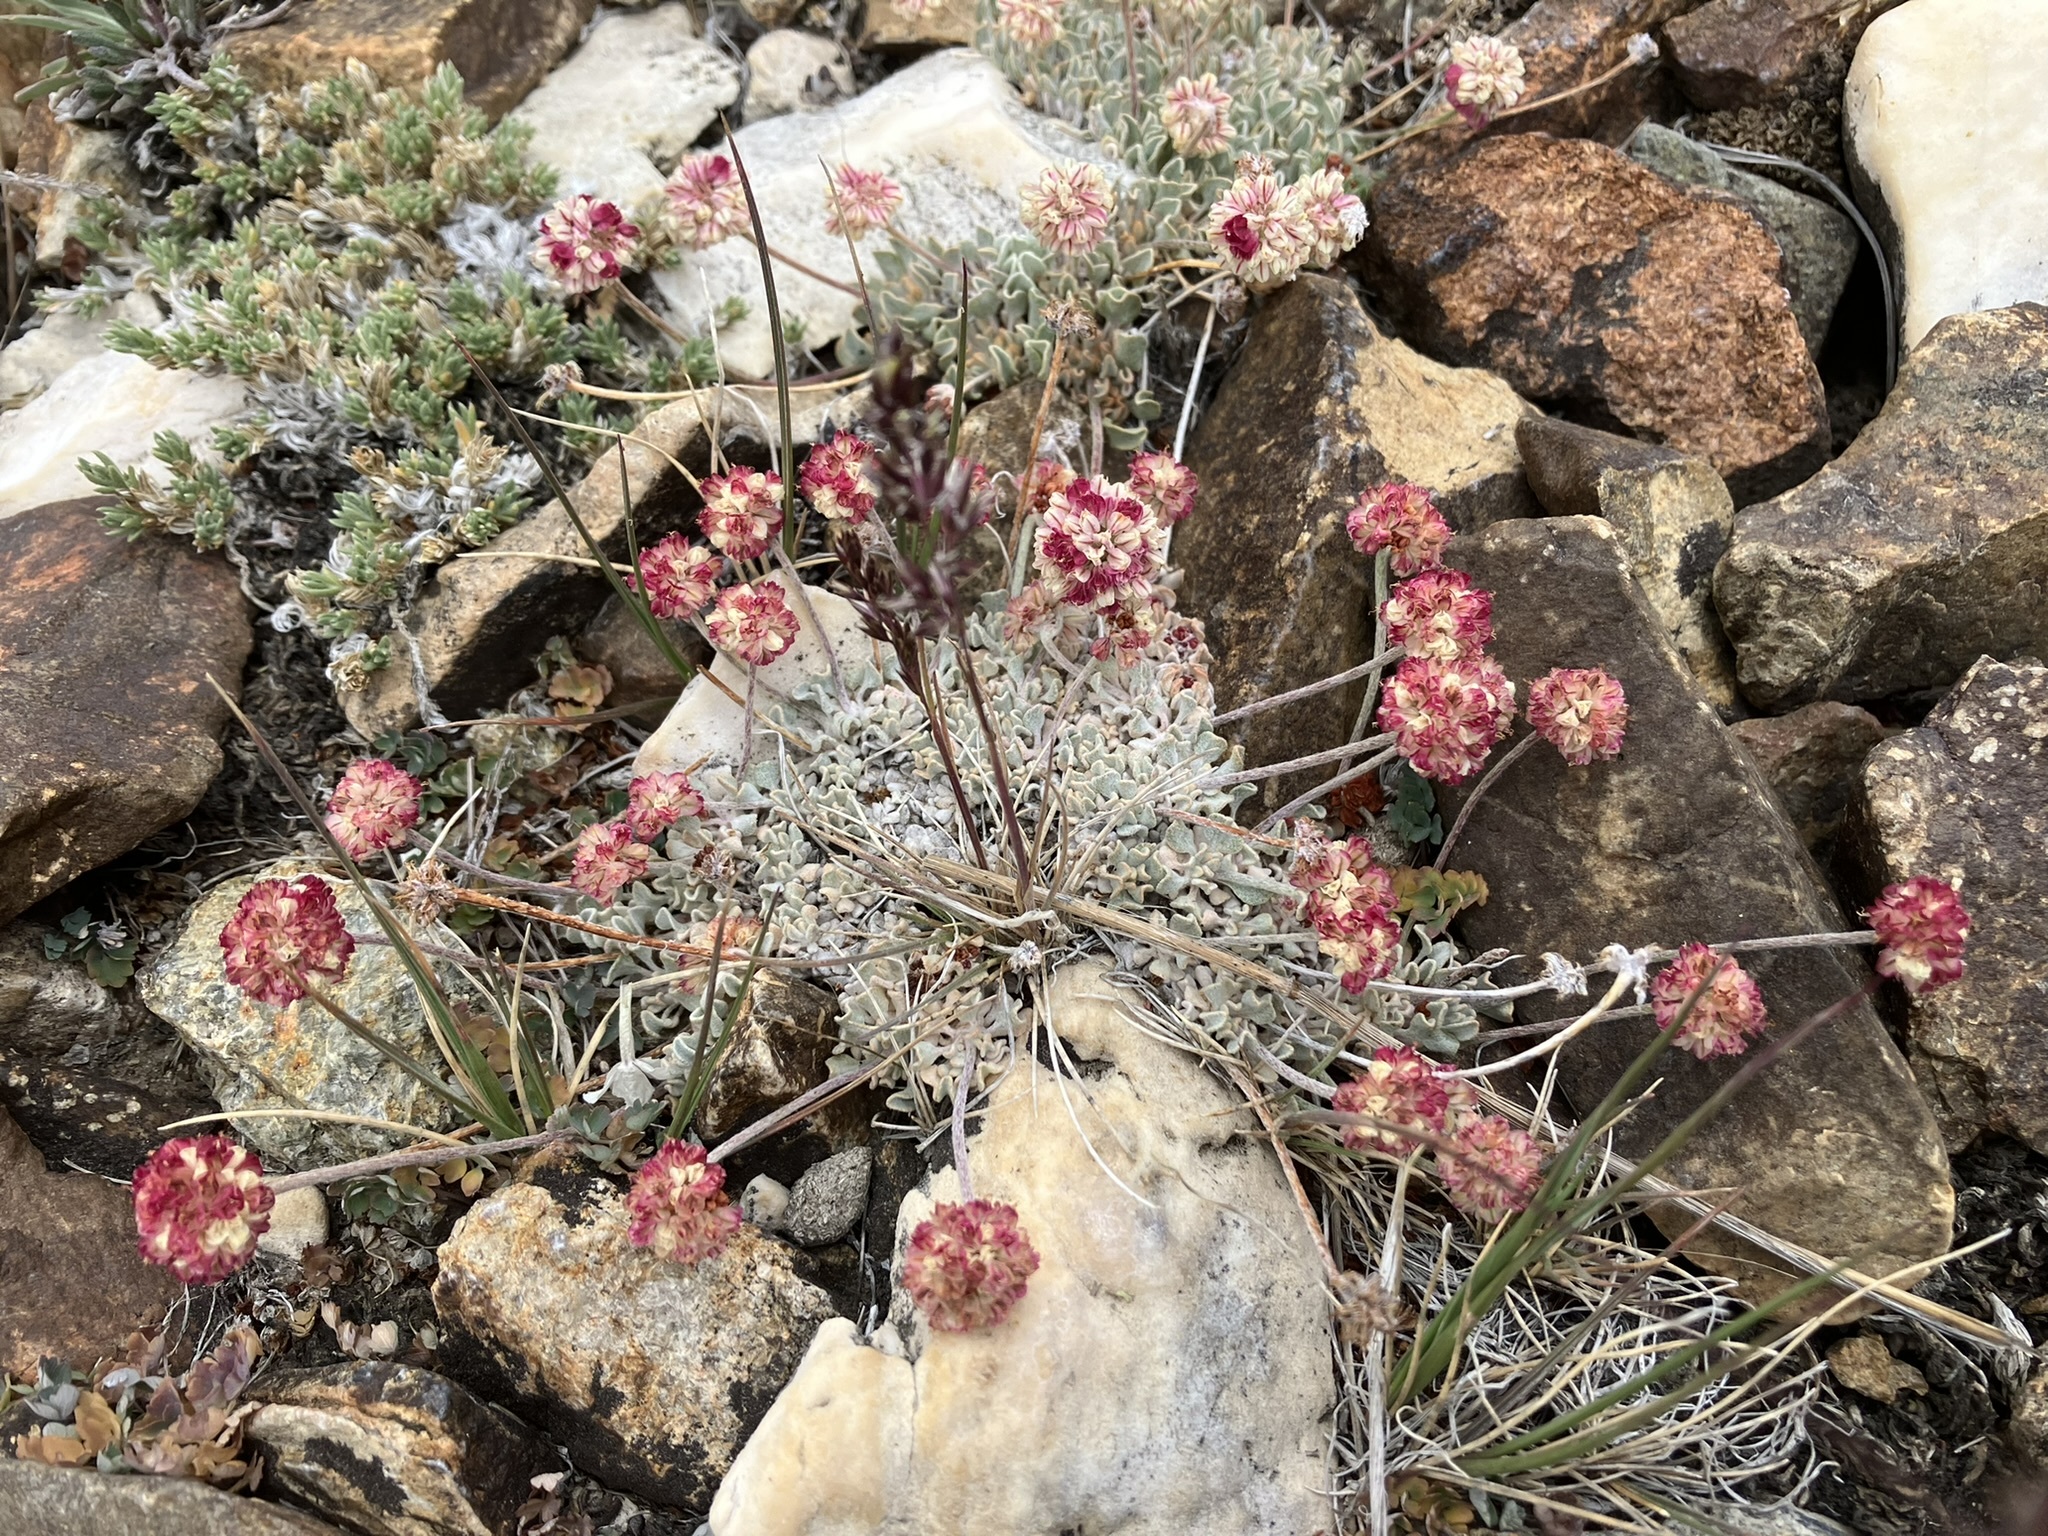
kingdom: Plantae
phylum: Tracheophyta
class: Magnoliopsida
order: Caryophyllales
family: Polygonaceae
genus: Eriogonum
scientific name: Eriogonum ovalifolium
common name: Cushion buckwheat
